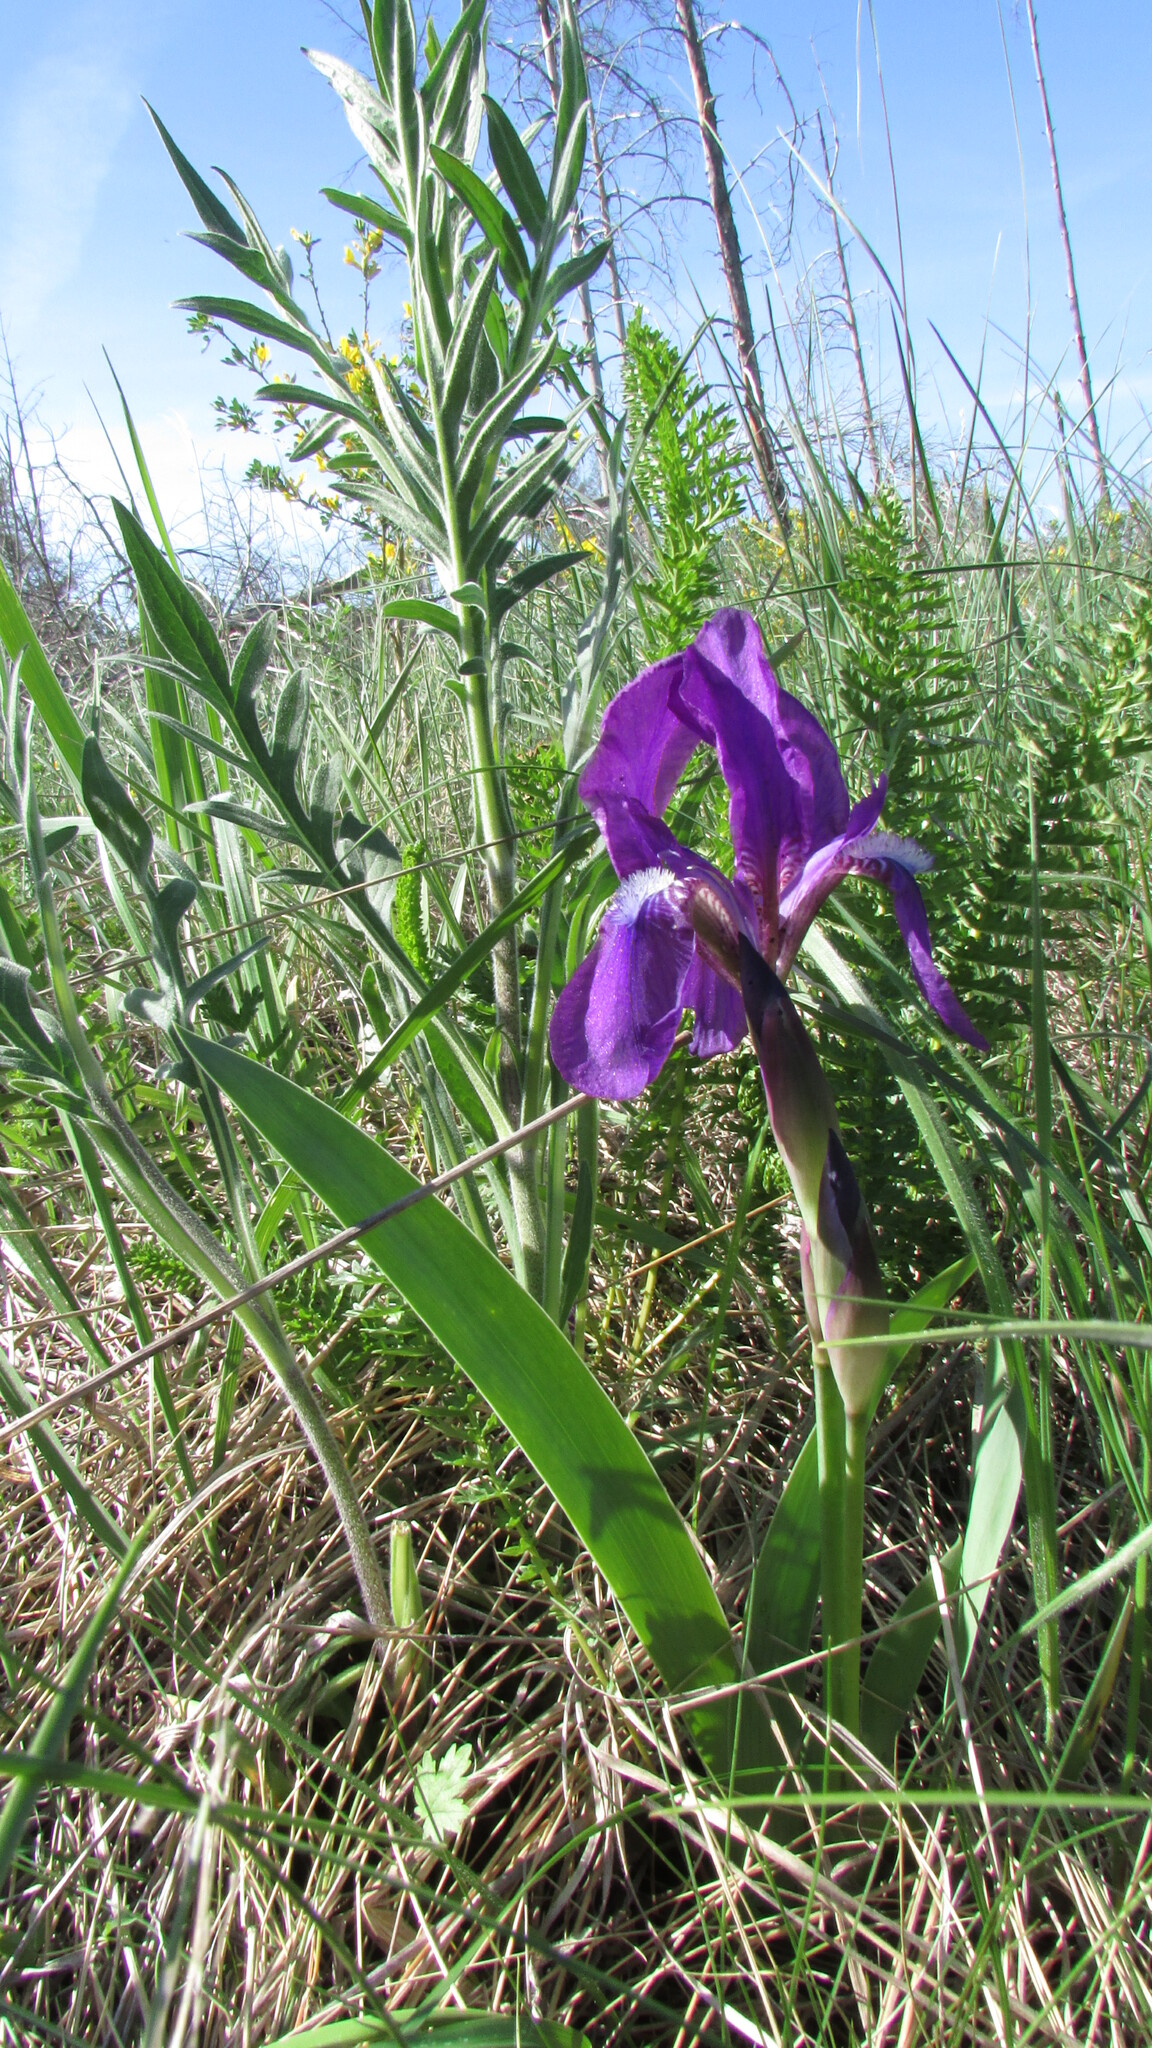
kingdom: Plantae
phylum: Tracheophyta
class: Liliopsida
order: Asparagales
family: Iridaceae
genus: Iris
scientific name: Iris aphylla
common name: Stool iris
